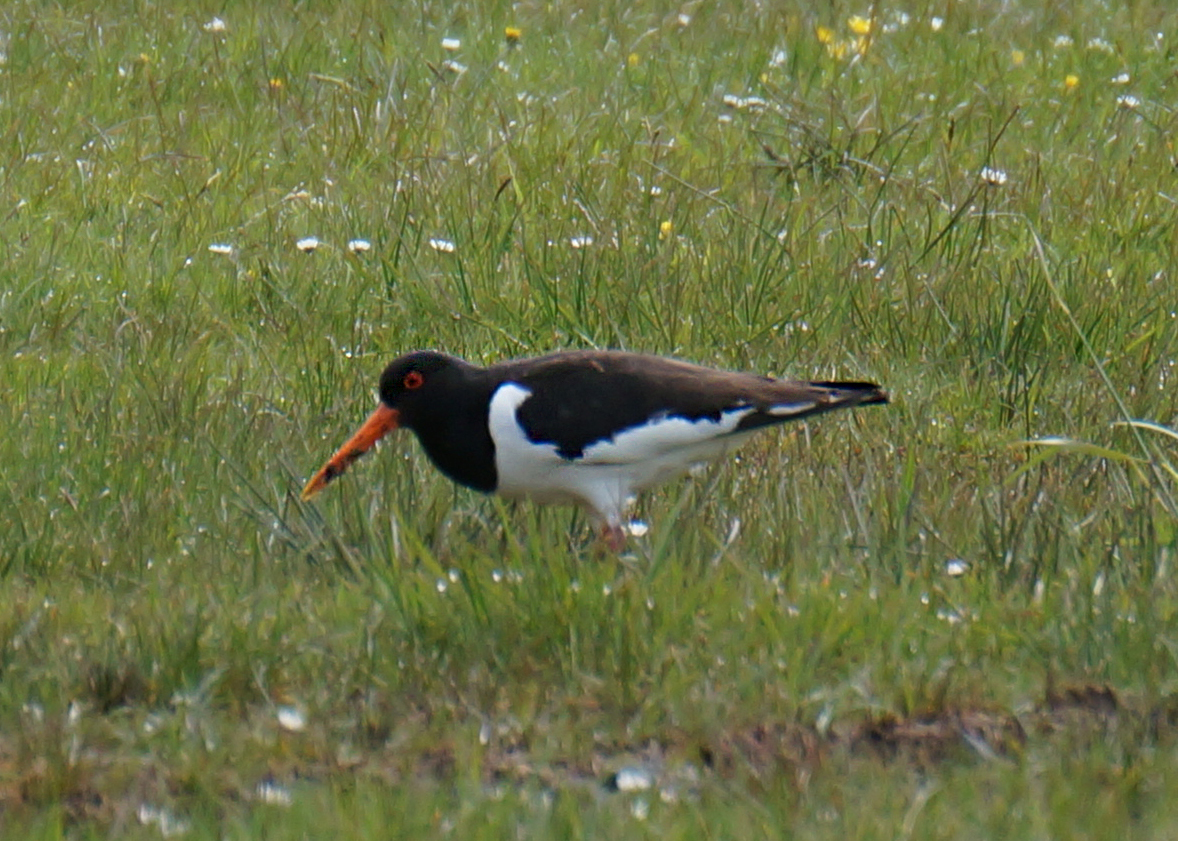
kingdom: Animalia
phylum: Chordata
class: Aves
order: Charadriiformes
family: Haematopodidae
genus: Haematopus
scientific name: Haematopus ostralegus
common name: Eurasian oystercatcher
